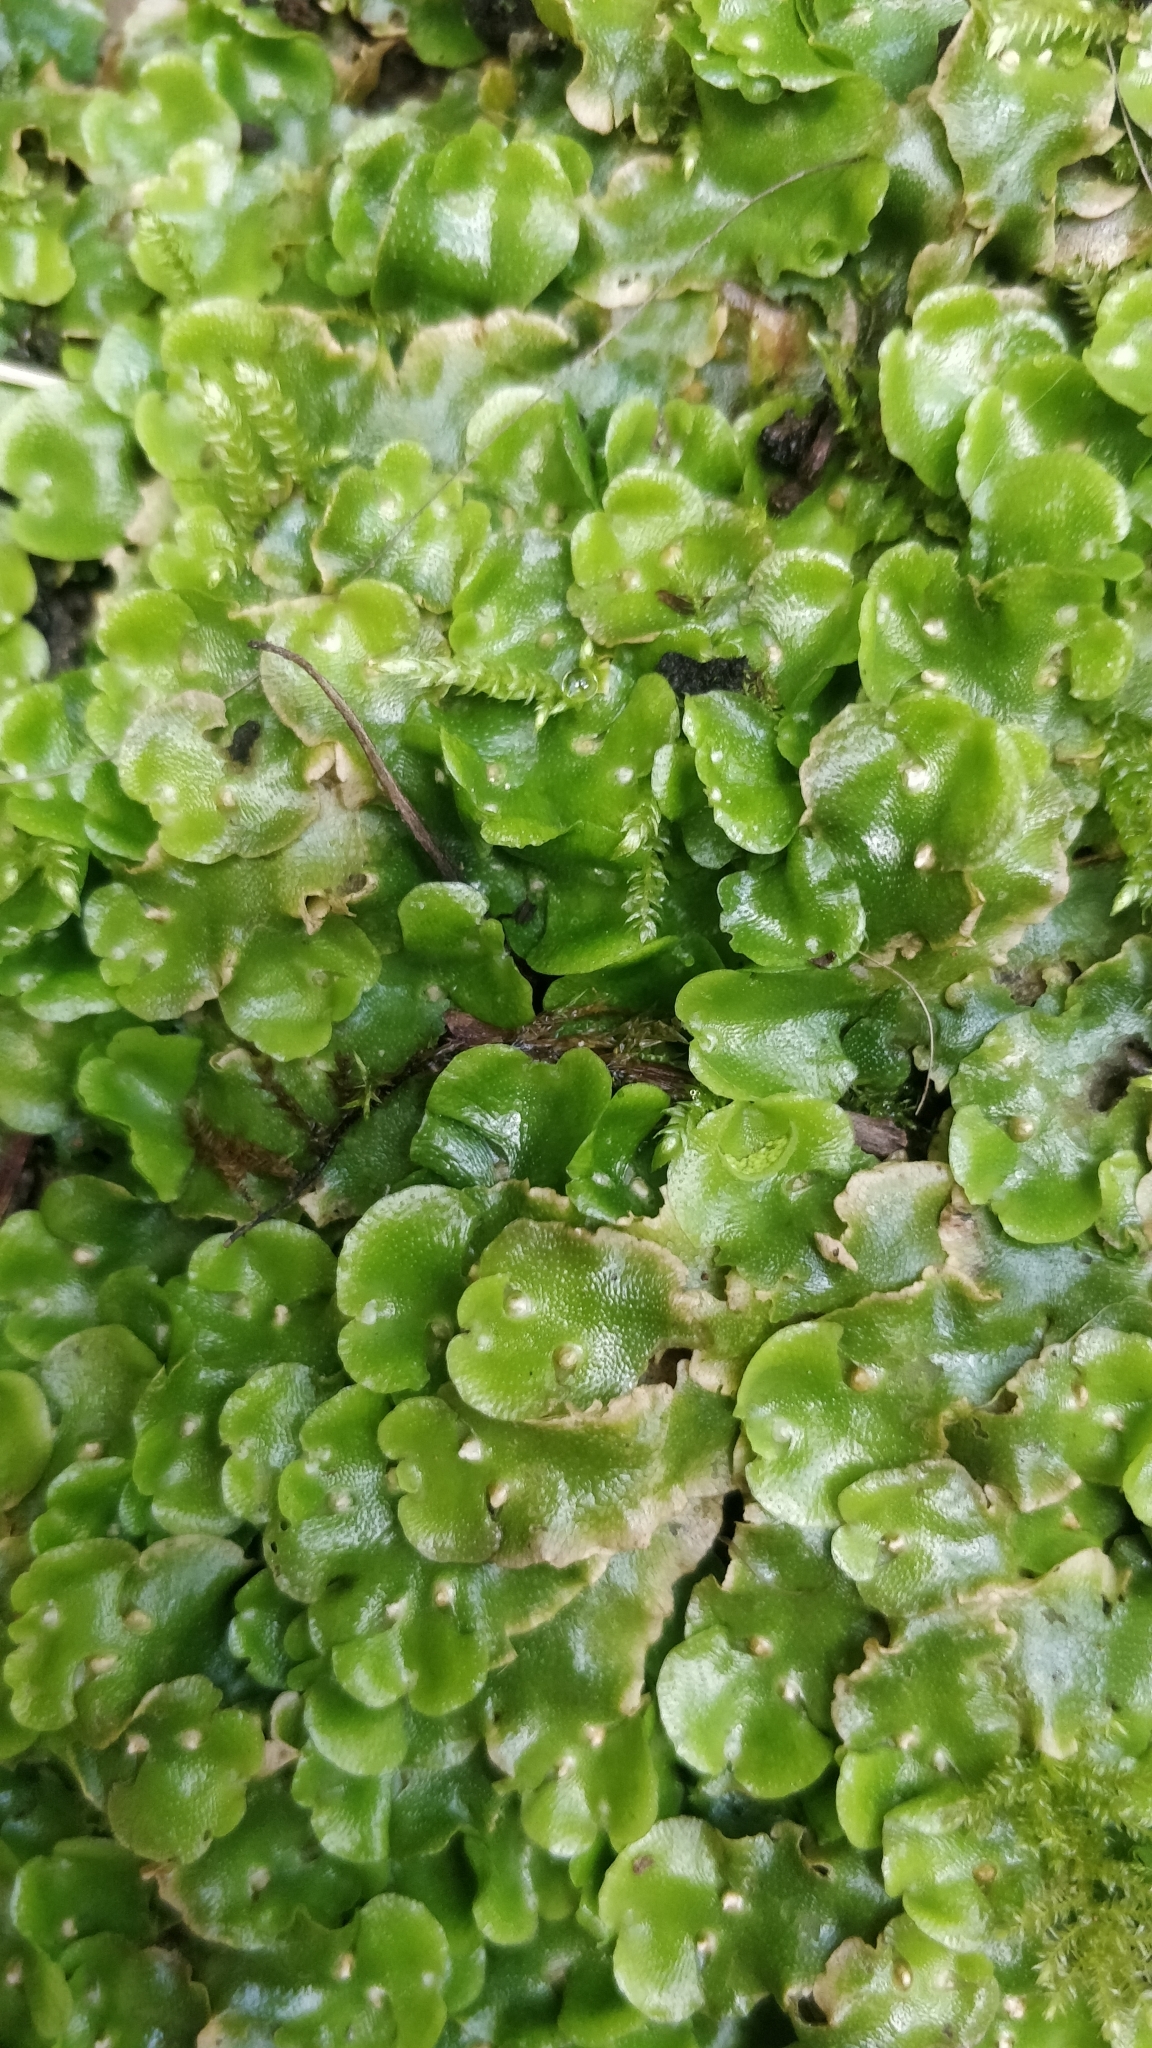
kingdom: Plantae
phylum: Marchantiophyta
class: Marchantiopsida
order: Lunulariales
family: Lunulariaceae
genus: Lunularia
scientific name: Lunularia cruciata
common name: Crescent-cup liverwort
